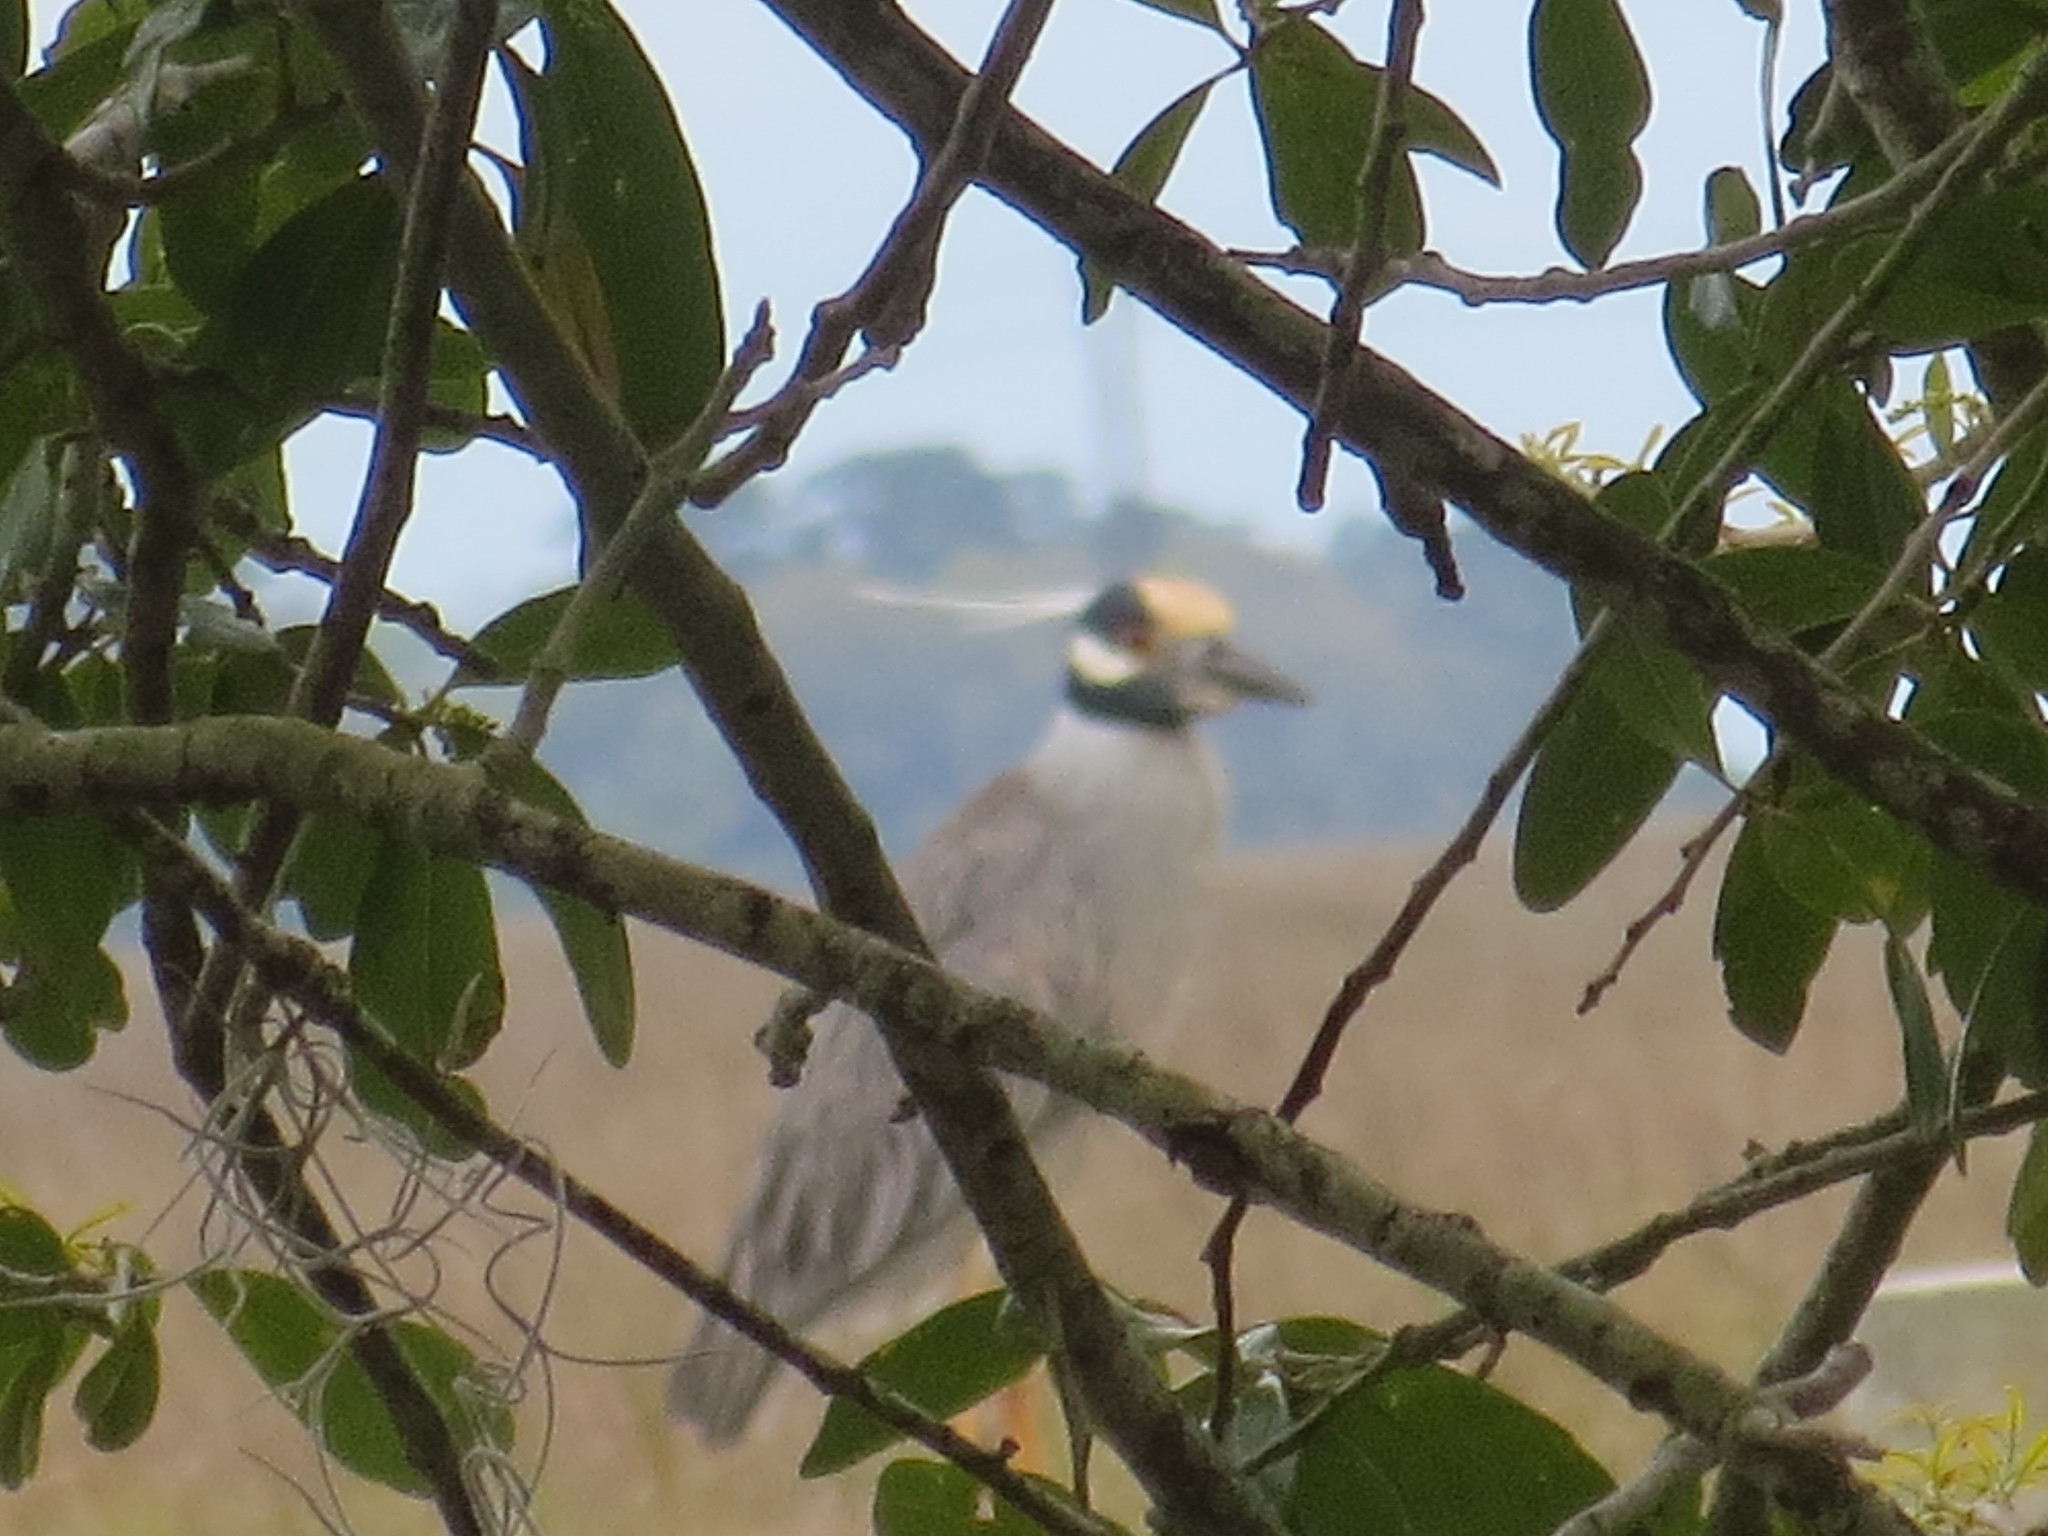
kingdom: Animalia
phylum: Chordata
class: Aves
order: Pelecaniformes
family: Ardeidae
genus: Nyctanassa
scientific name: Nyctanassa violacea
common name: Yellow-crowned night heron
